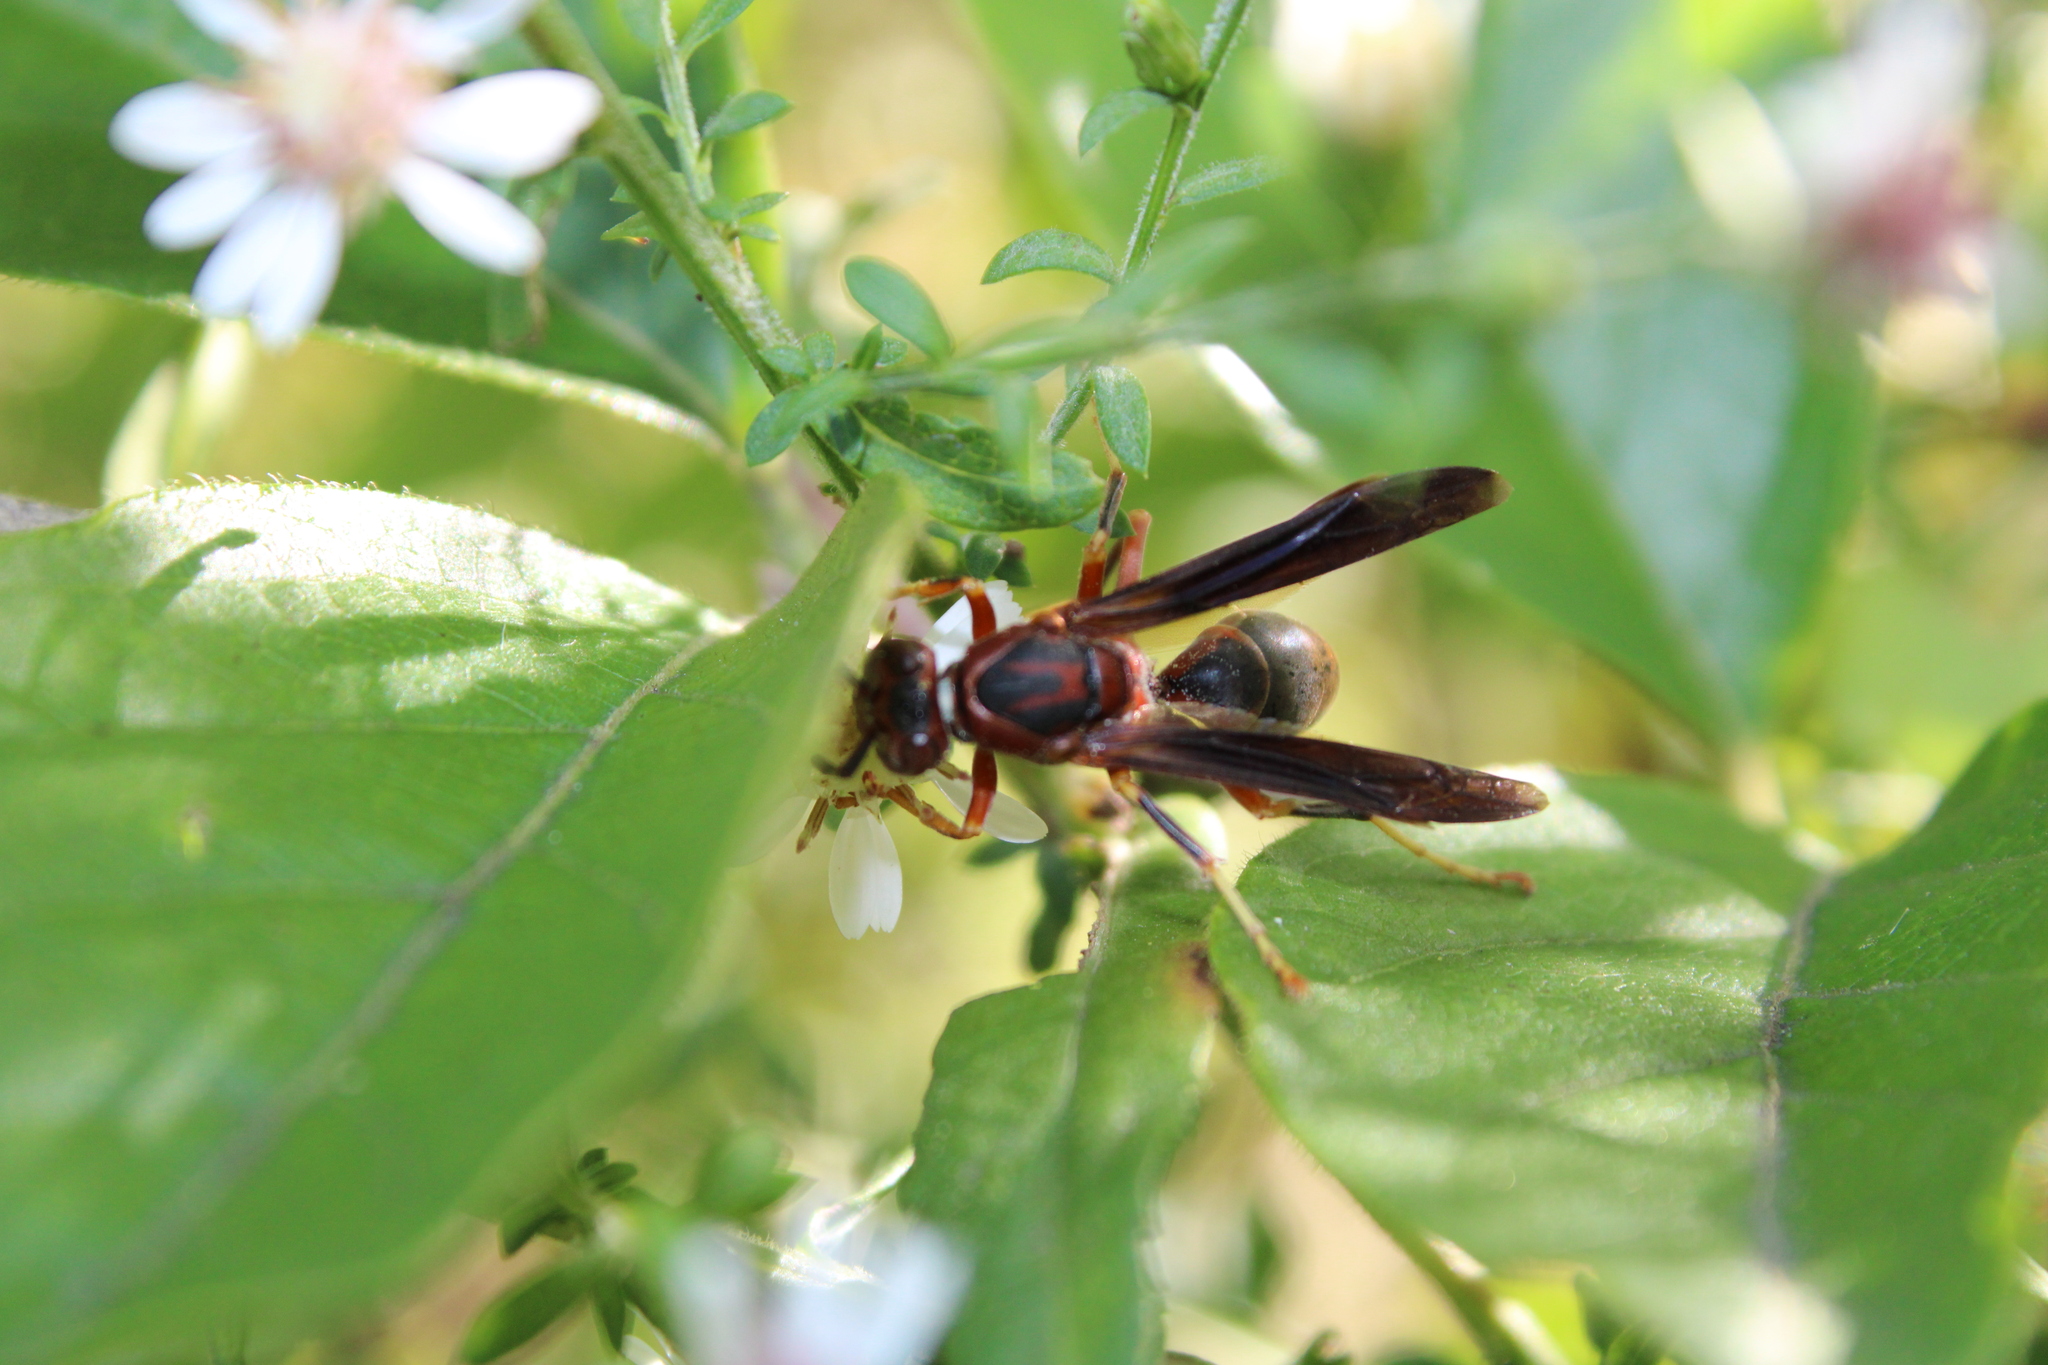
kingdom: Animalia
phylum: Arthropoda
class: Insecta
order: Hymenoptera
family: Eumenidae
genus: Polistes
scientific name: Polistes metricus
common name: Metric paper wasp
